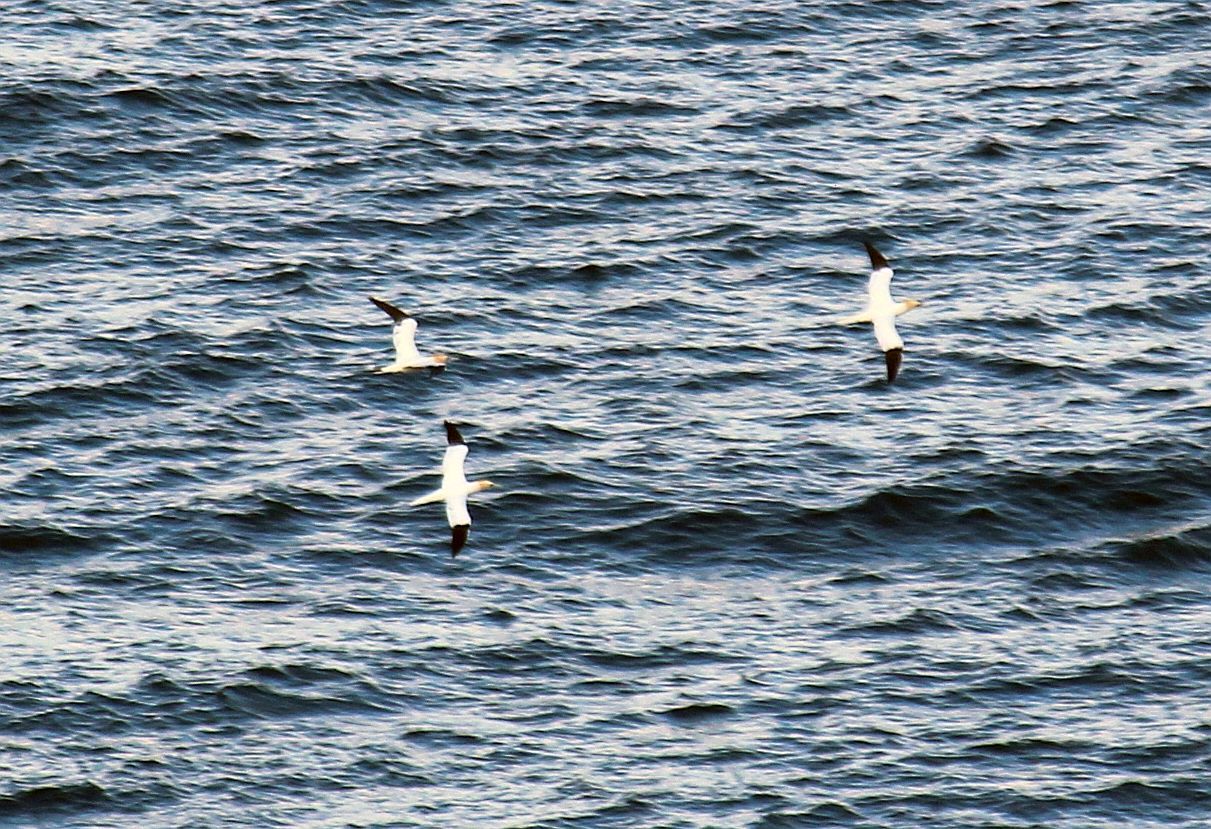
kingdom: Animalia
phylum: Chordata
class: Aves
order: Suliformes
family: Sulidae
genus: Morus
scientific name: Morus bassanus
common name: Northern gannet
